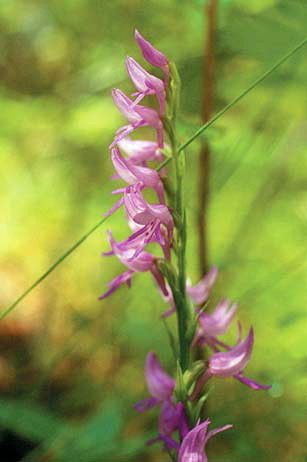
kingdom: Plantae
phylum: Tracheophyta
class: Liliopsida
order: Asparagales
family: Orchidaceae
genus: Hemipilia
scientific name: Hemipilia cucullata
